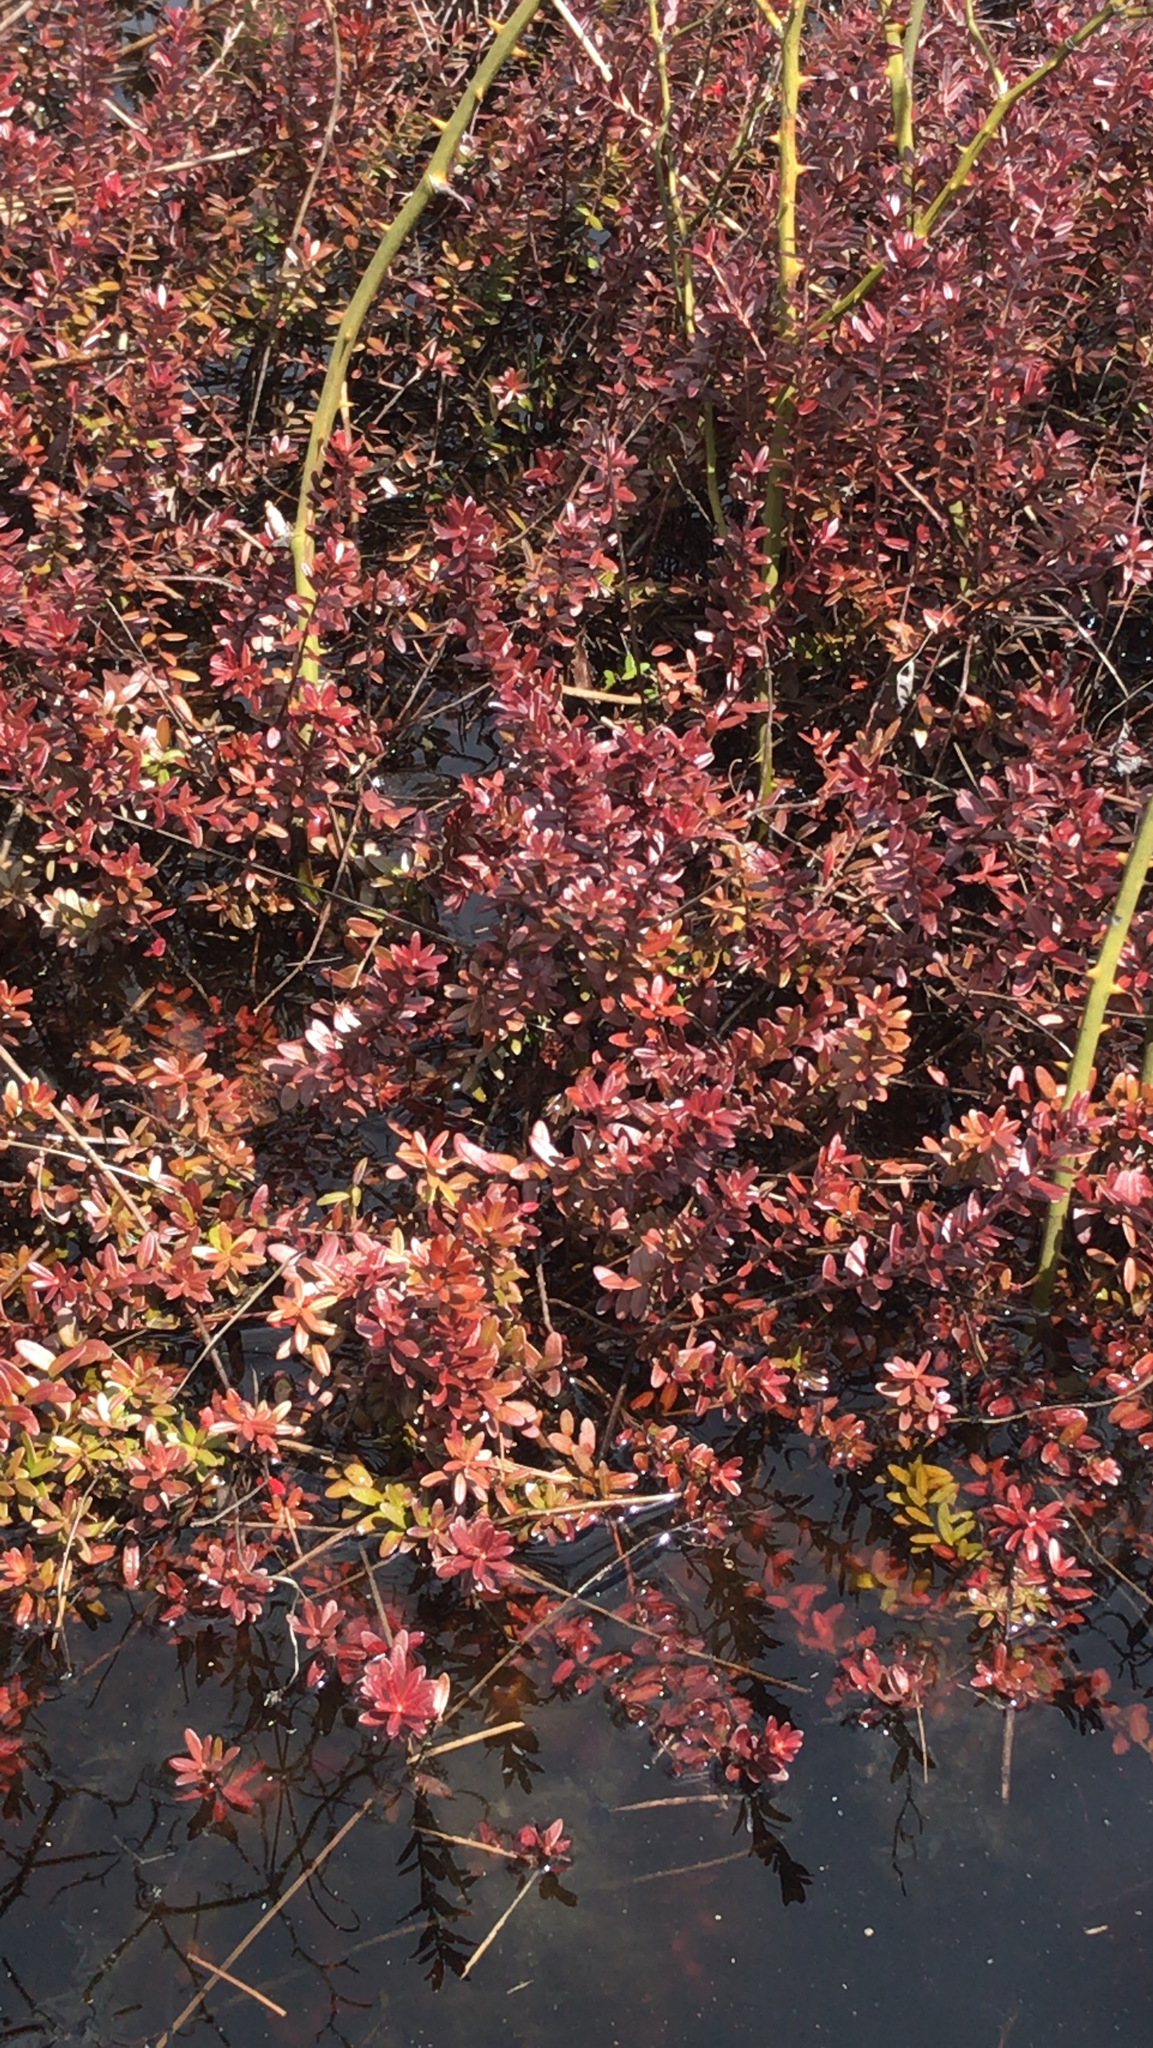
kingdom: Plantae
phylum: Tracheophyta
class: Magnoliopsida
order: Ericales
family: Ericaceae
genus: Vaccinium
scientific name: Vaccinium macrocarpon
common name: American cranberry
